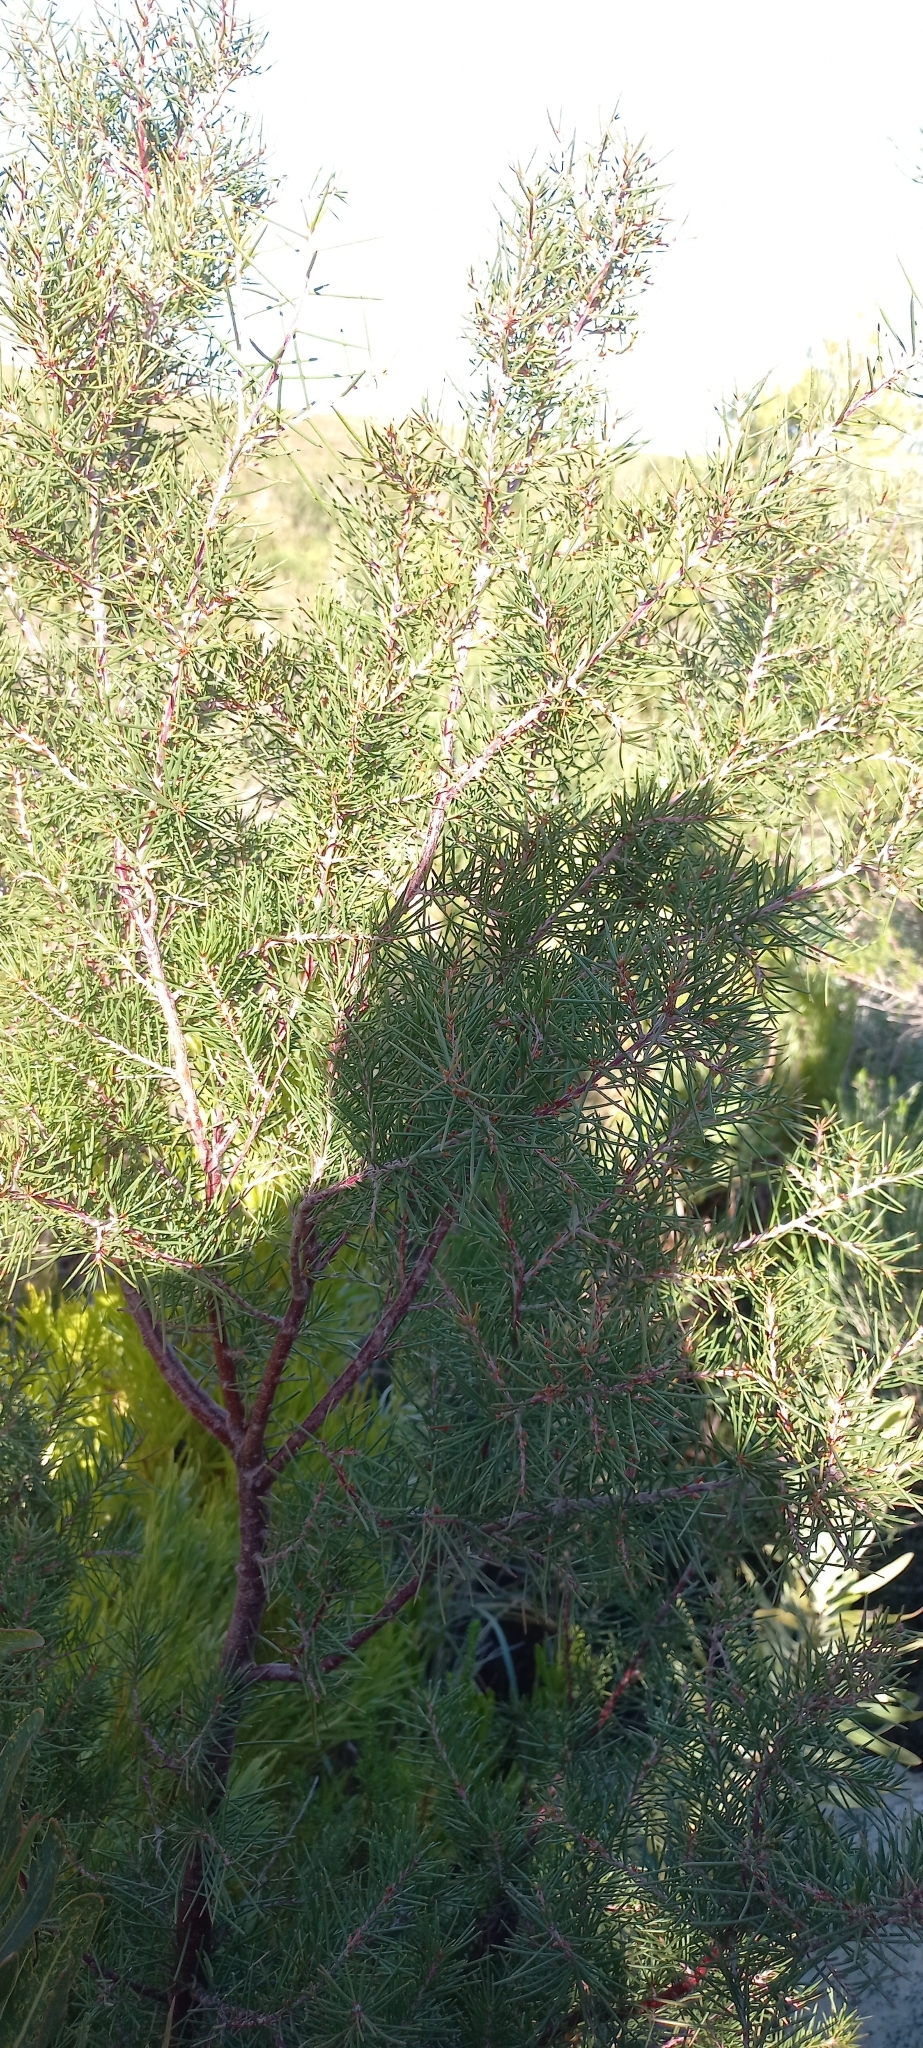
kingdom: Plantae
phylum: Tracheophyta
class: Magnoliopsida
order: Proteales
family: Proteaceae
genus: Hakea
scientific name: Hakea gibbosa
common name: Rock hakea
